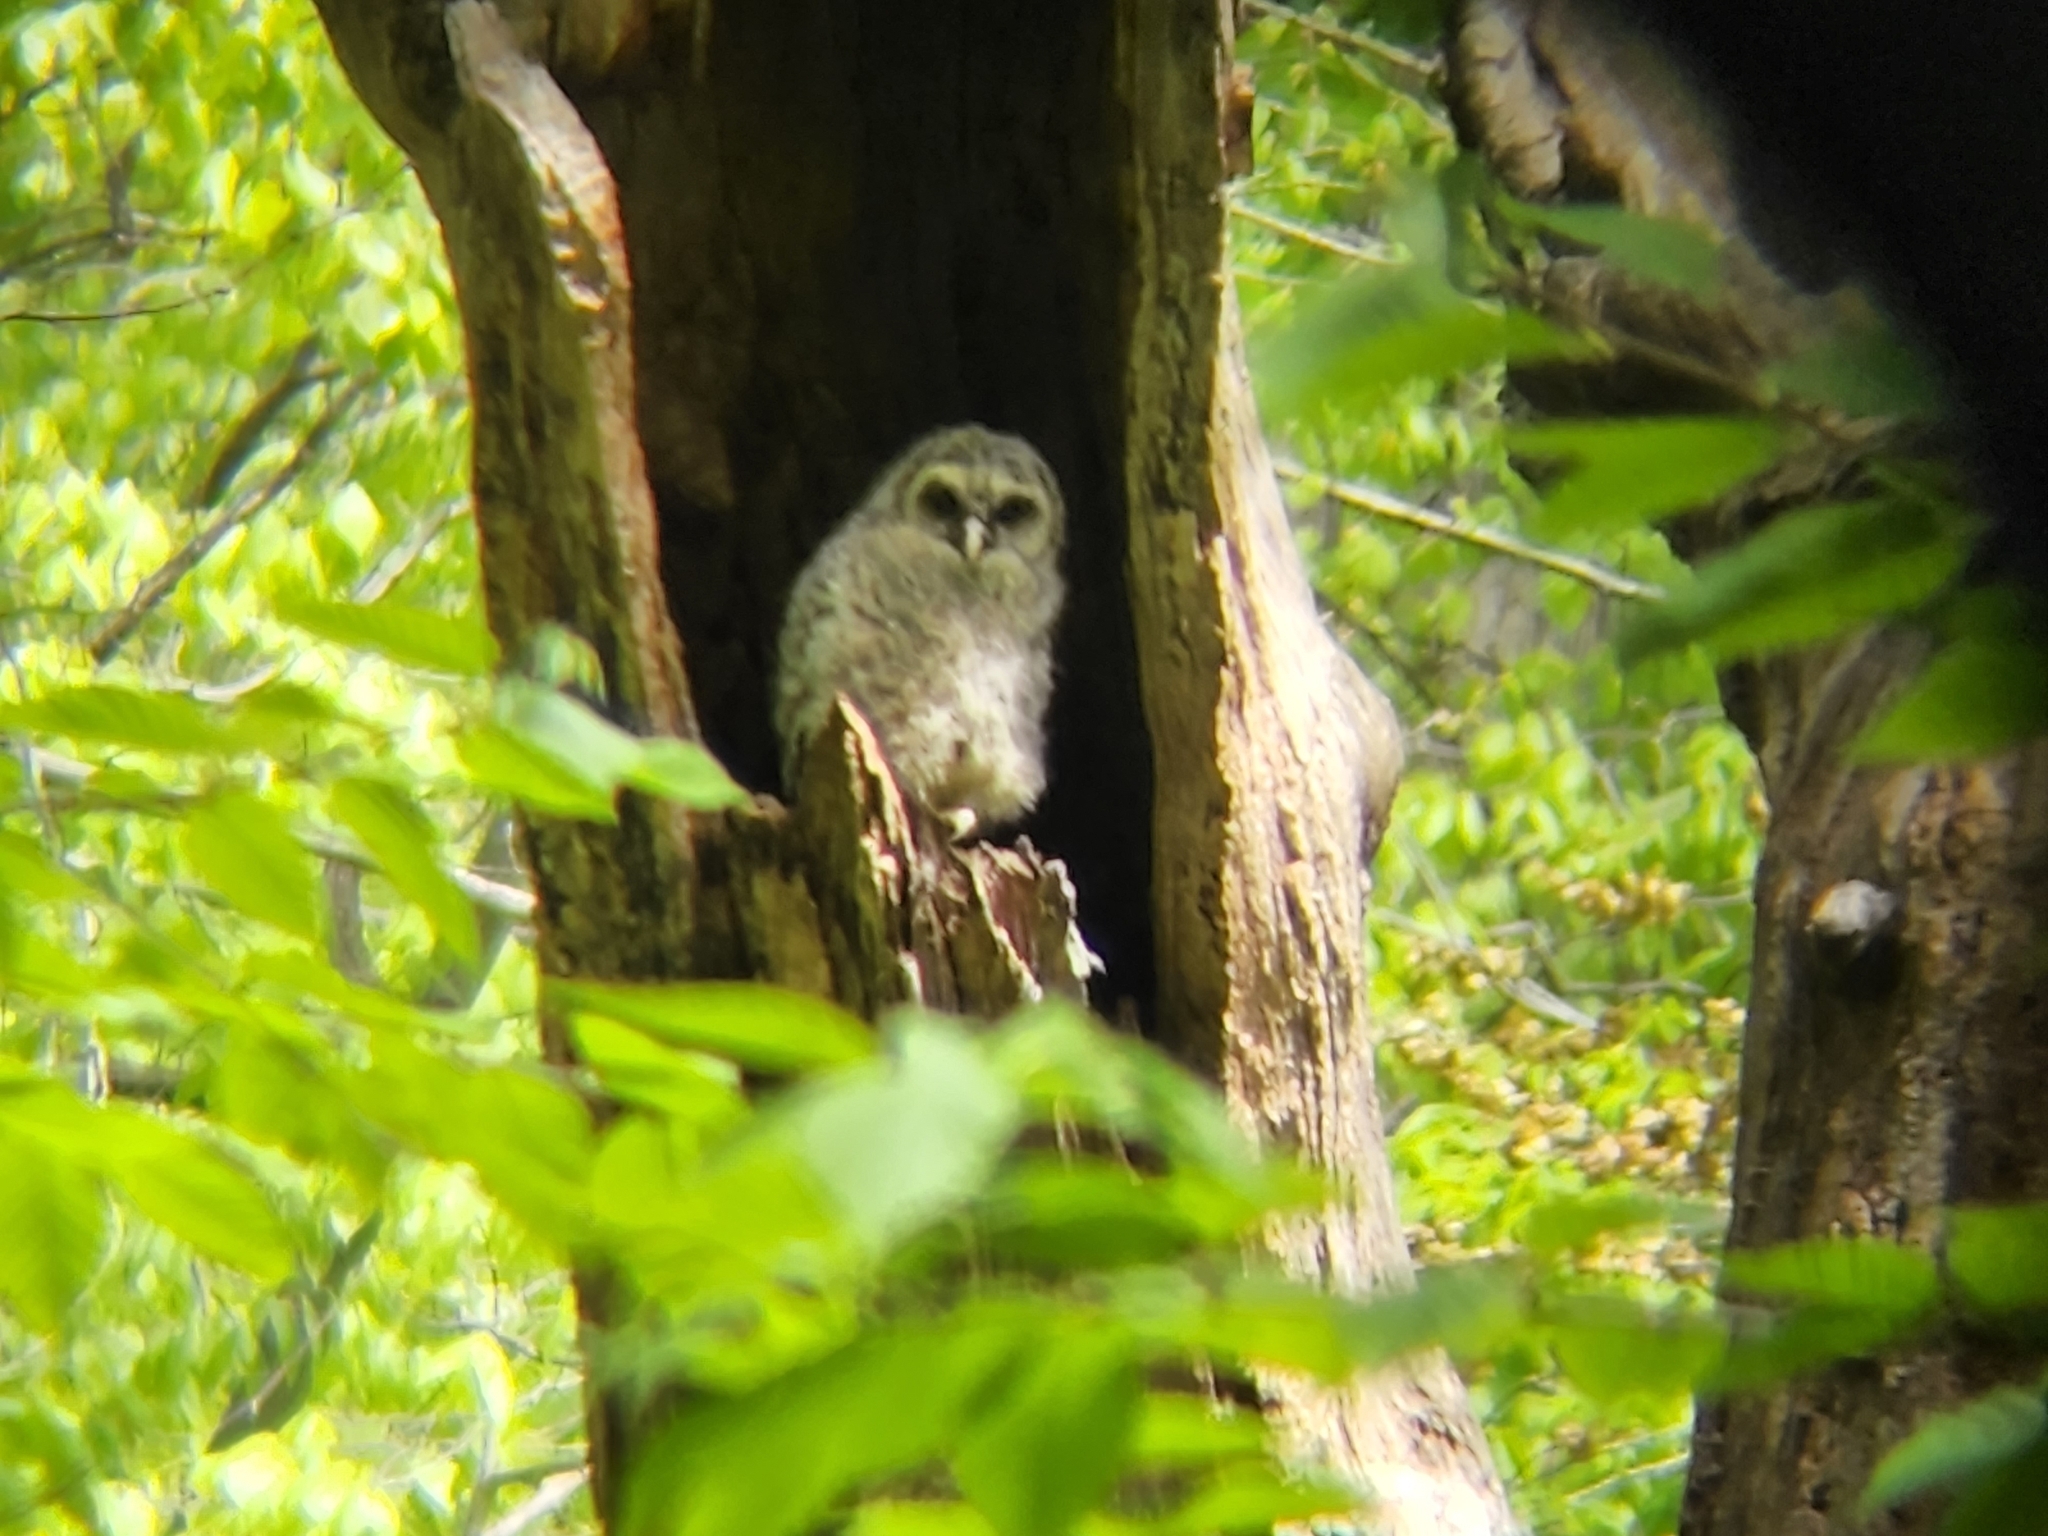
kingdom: Animalia
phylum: Chordata
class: Aves
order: Strigiformes
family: Strigidae
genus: Strix
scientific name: Strix varia
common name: Barred owl
